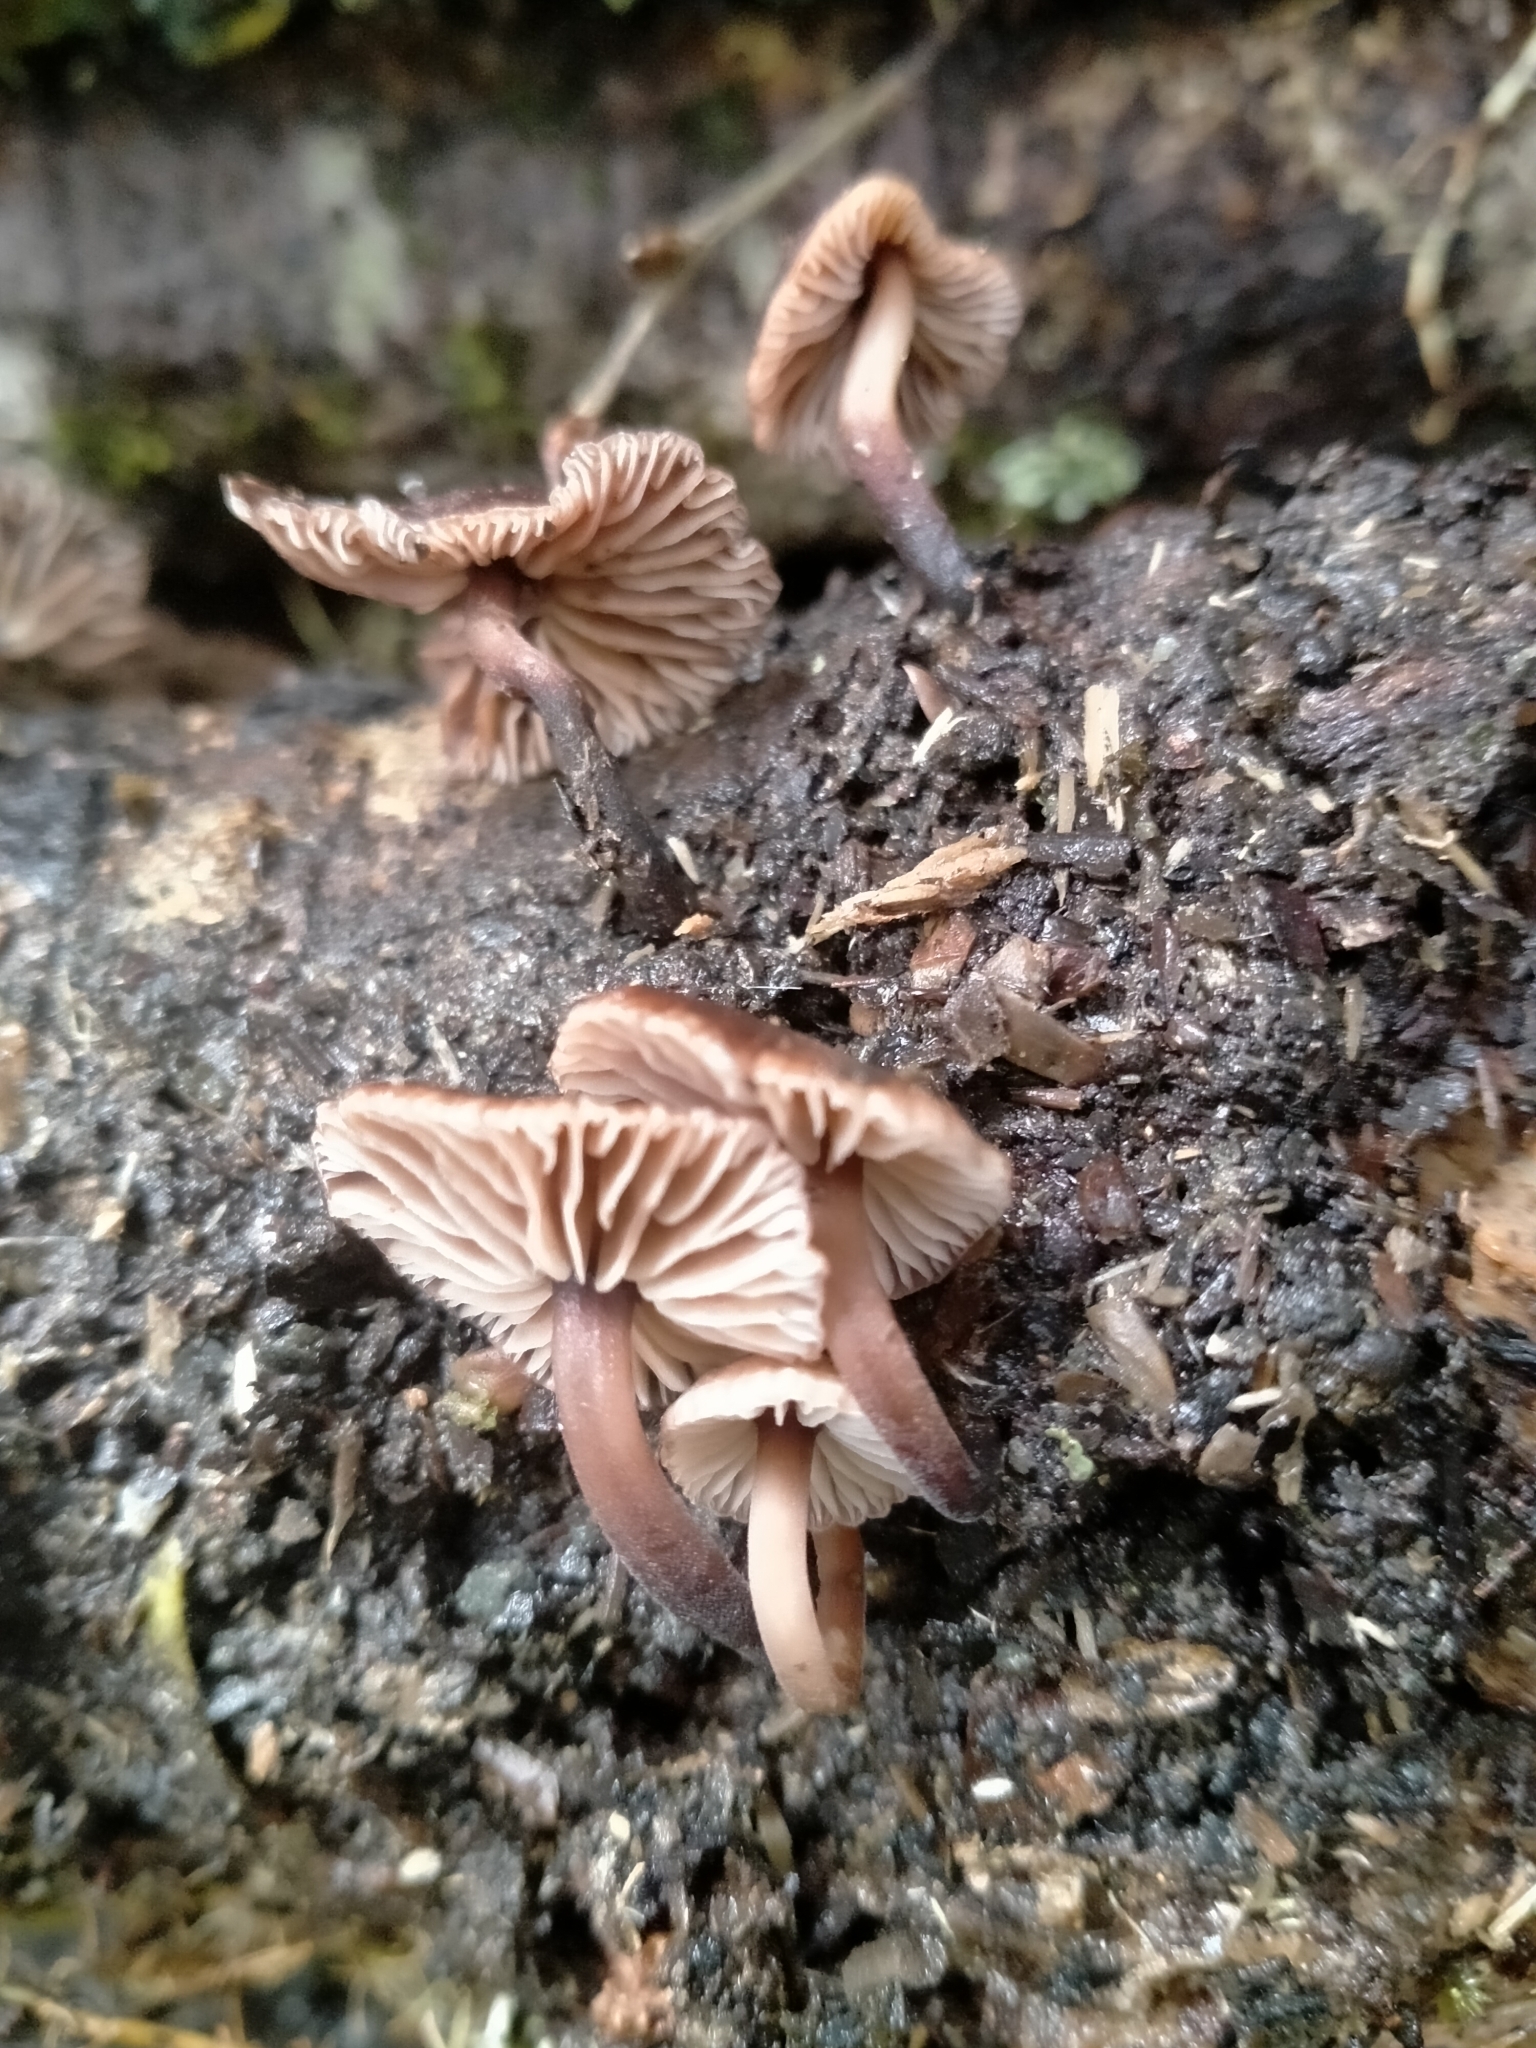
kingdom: Fungi
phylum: Basidiomycota
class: Agaricomycetes
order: Agaricales
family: Omphalotaceae
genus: Gymnopus
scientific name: Gymnopus ceraceicola
